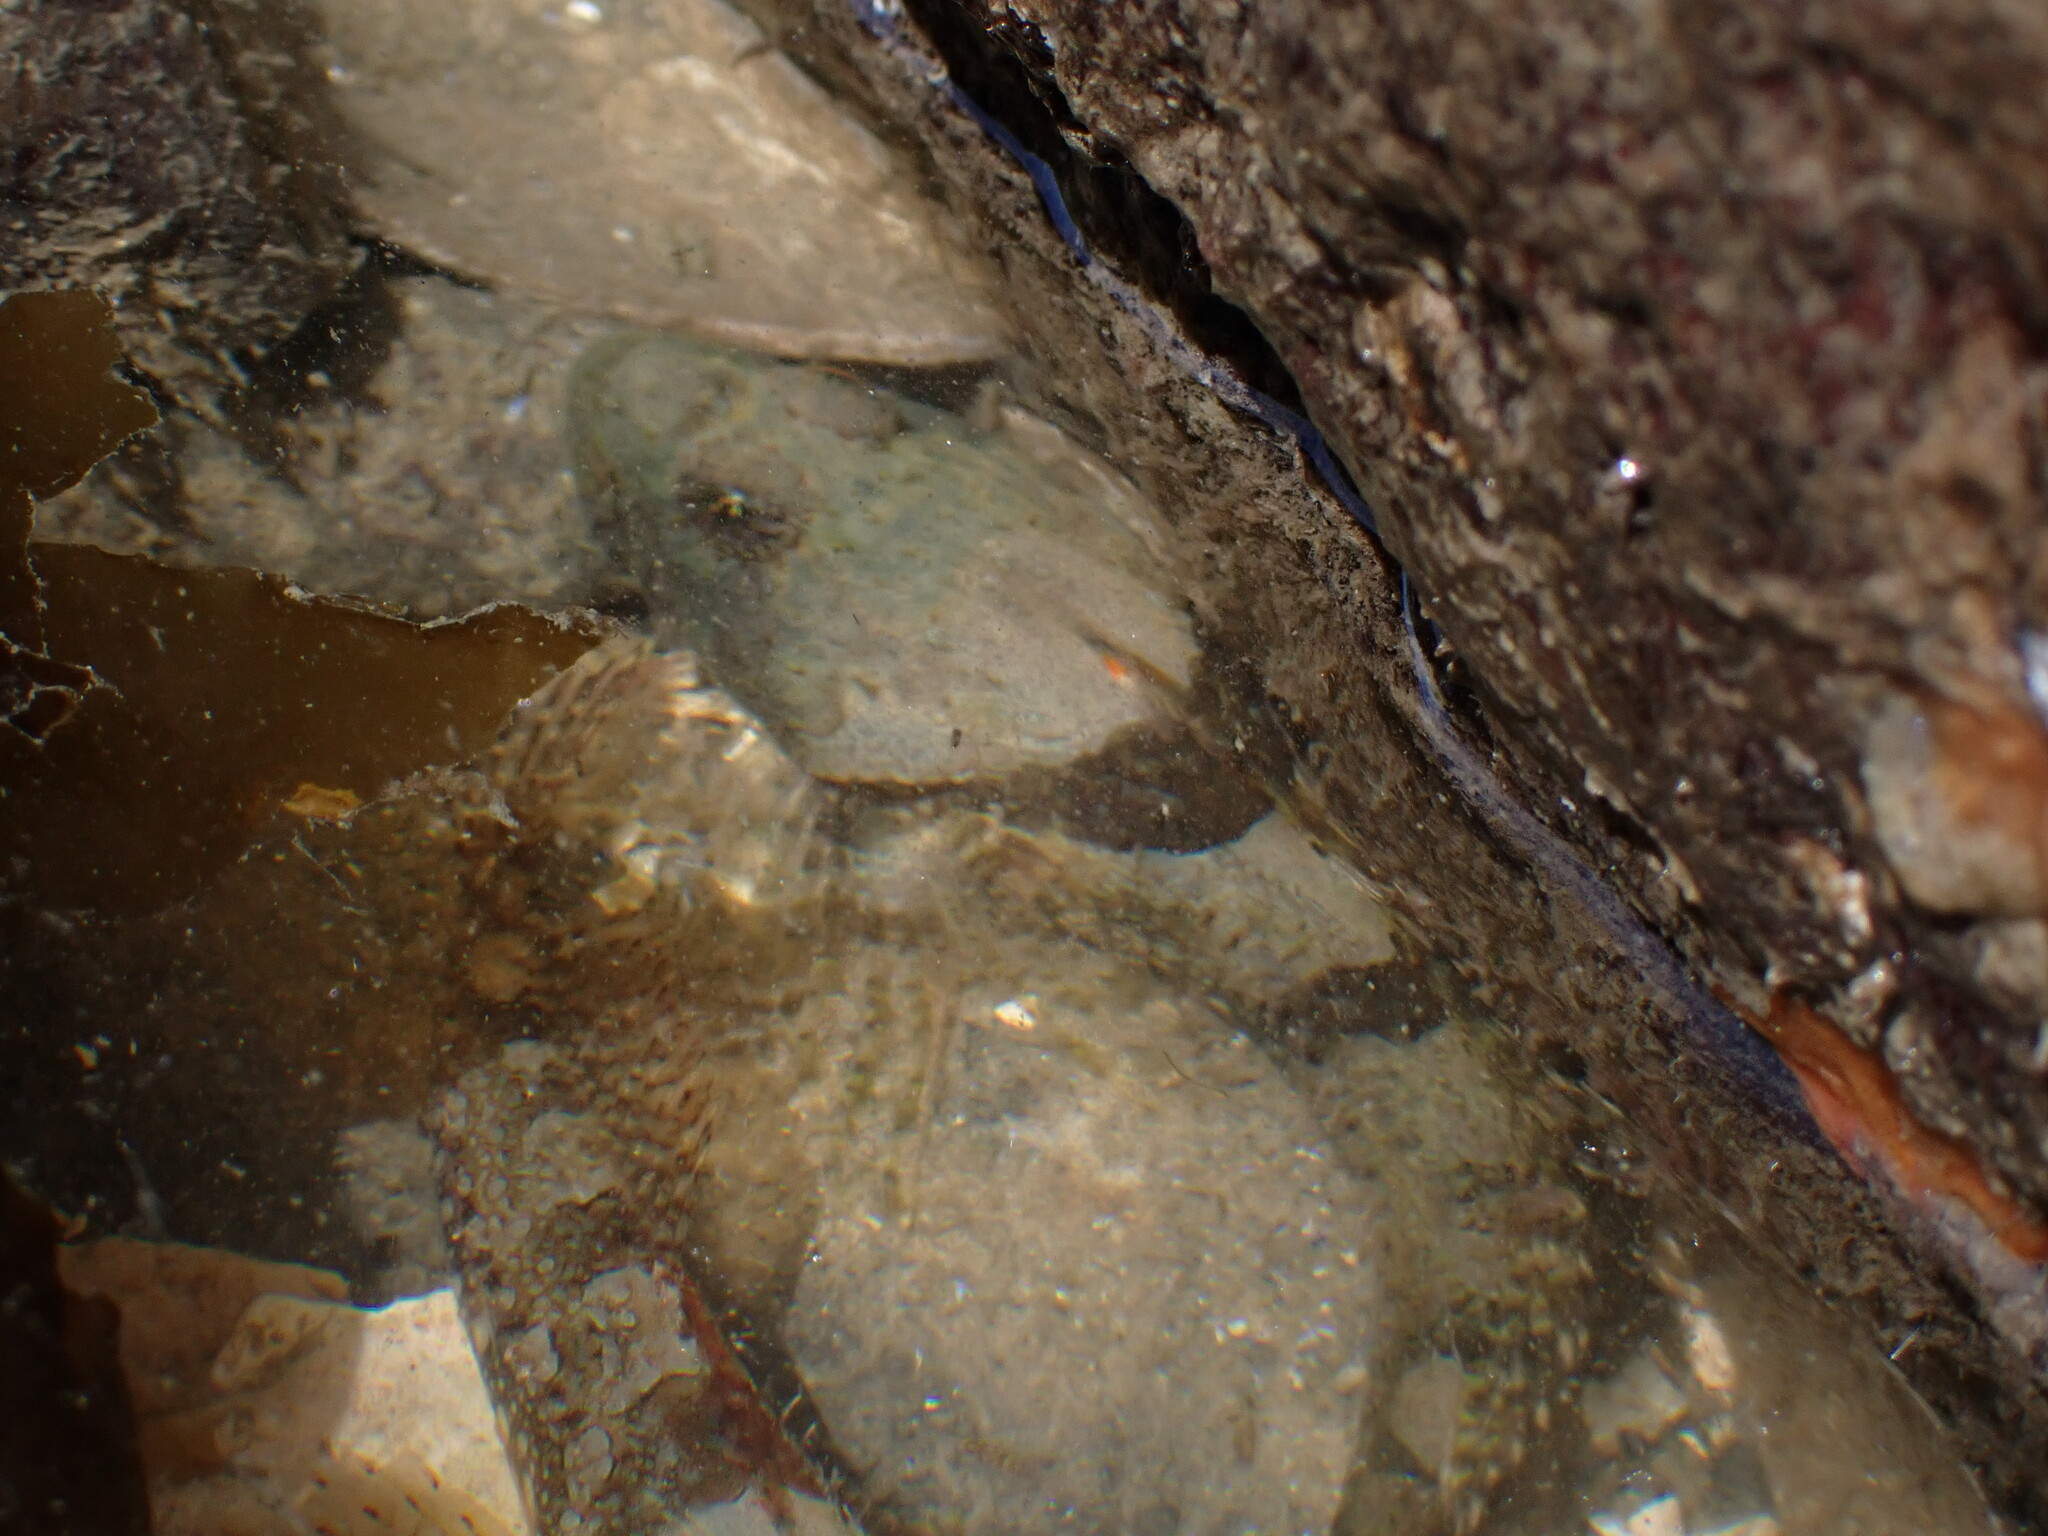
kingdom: Animalia
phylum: Chordata
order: Scorpaeniformes
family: Cottidae
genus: Artedius
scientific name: Artedius lateralis
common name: Smooth-head sculpin
